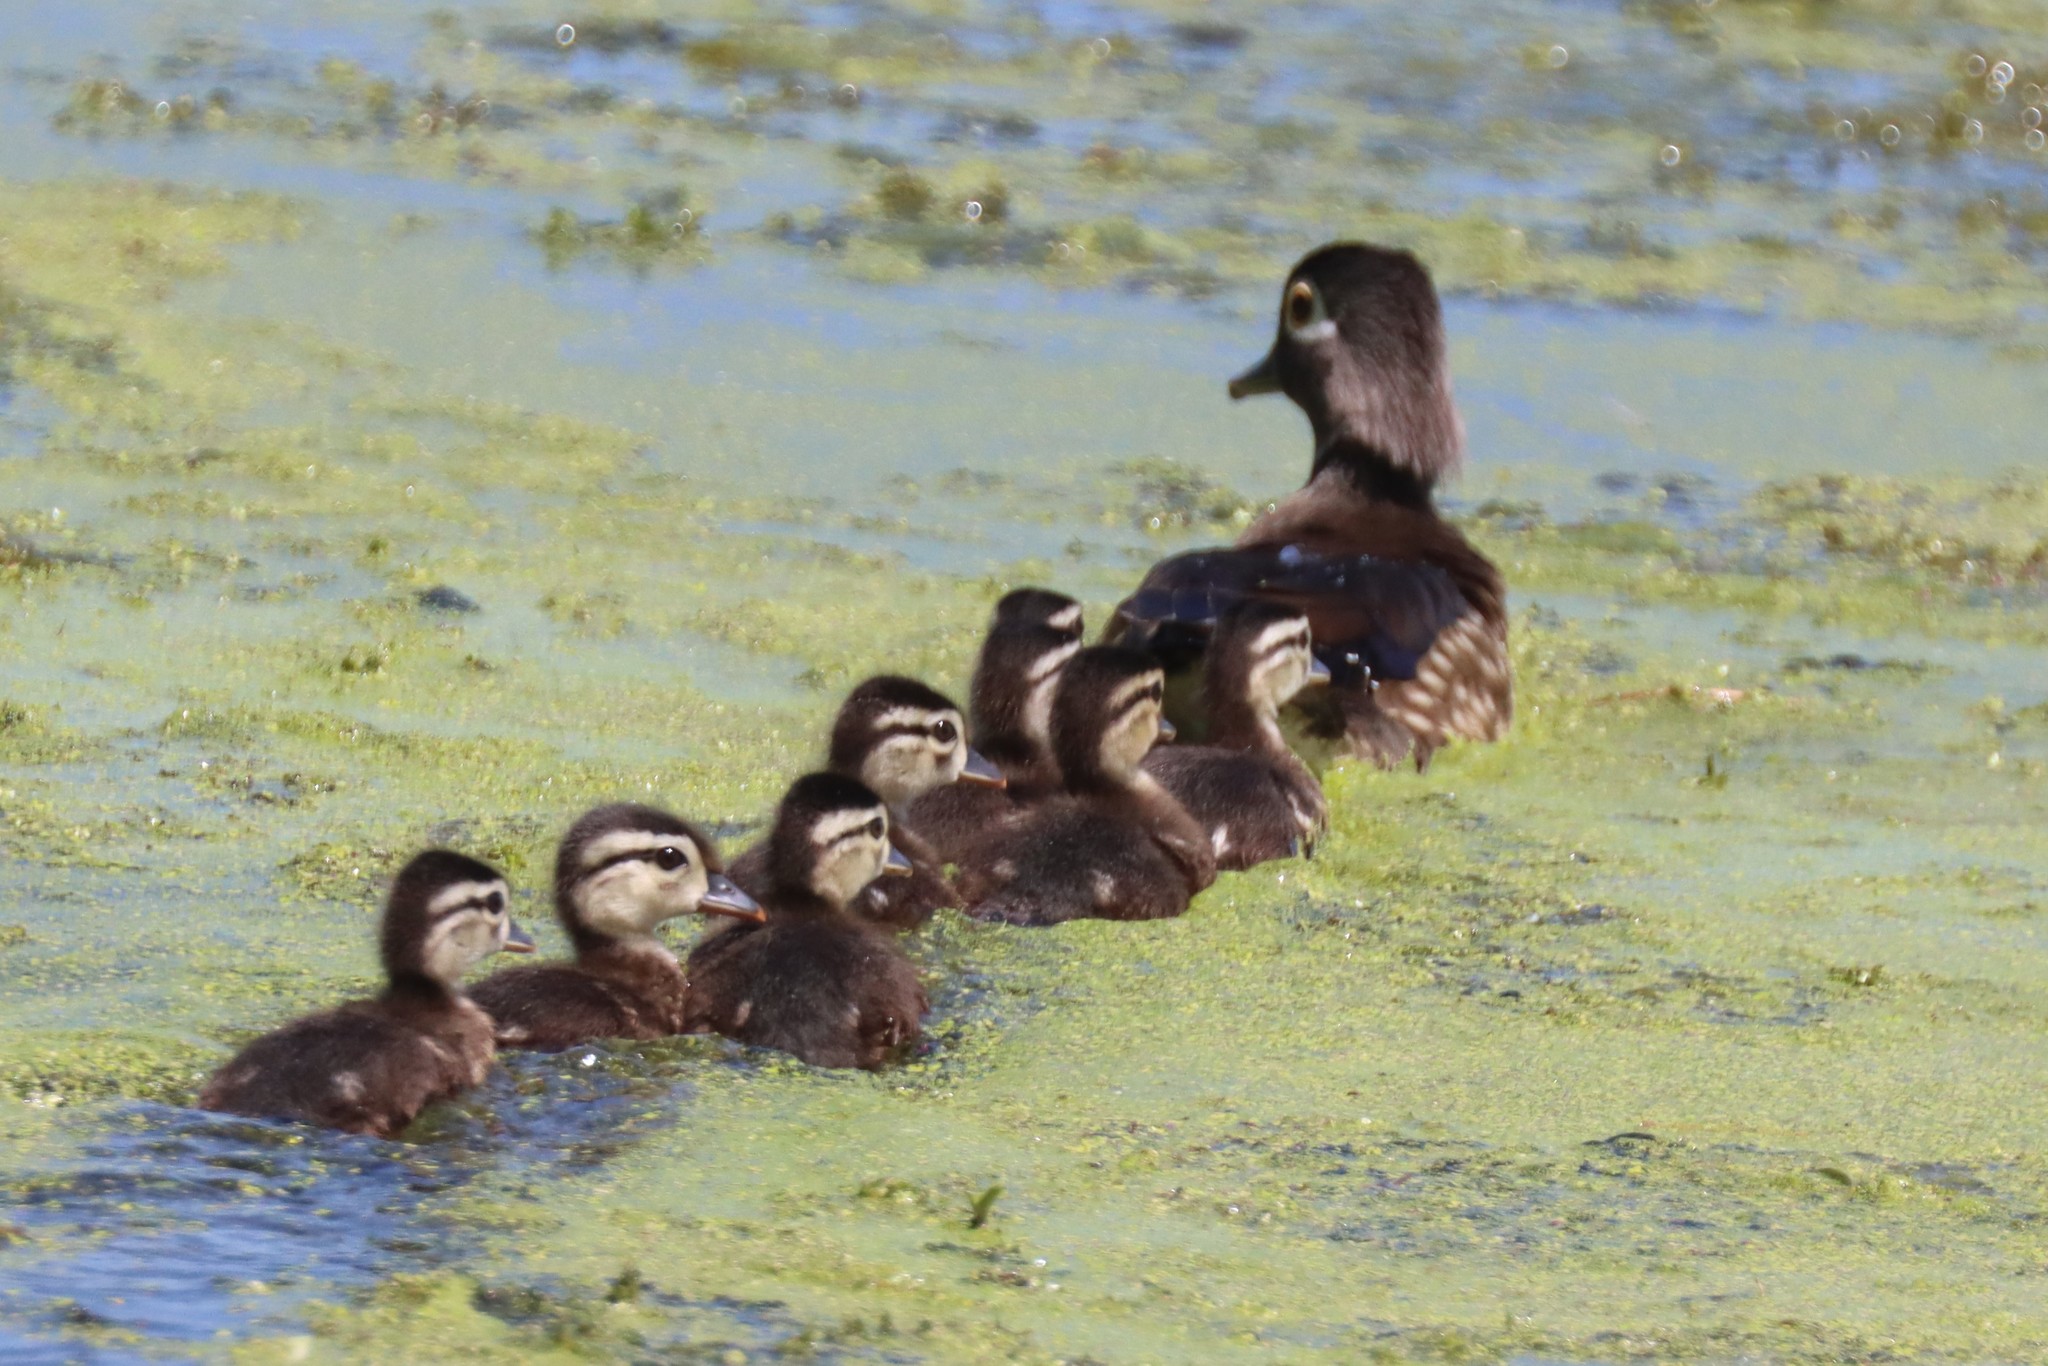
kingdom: Animalia
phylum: Chordata
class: Aves
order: Anseriformes
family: Anatidae
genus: Aix
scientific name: Aix sponsa
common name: Wood duck
